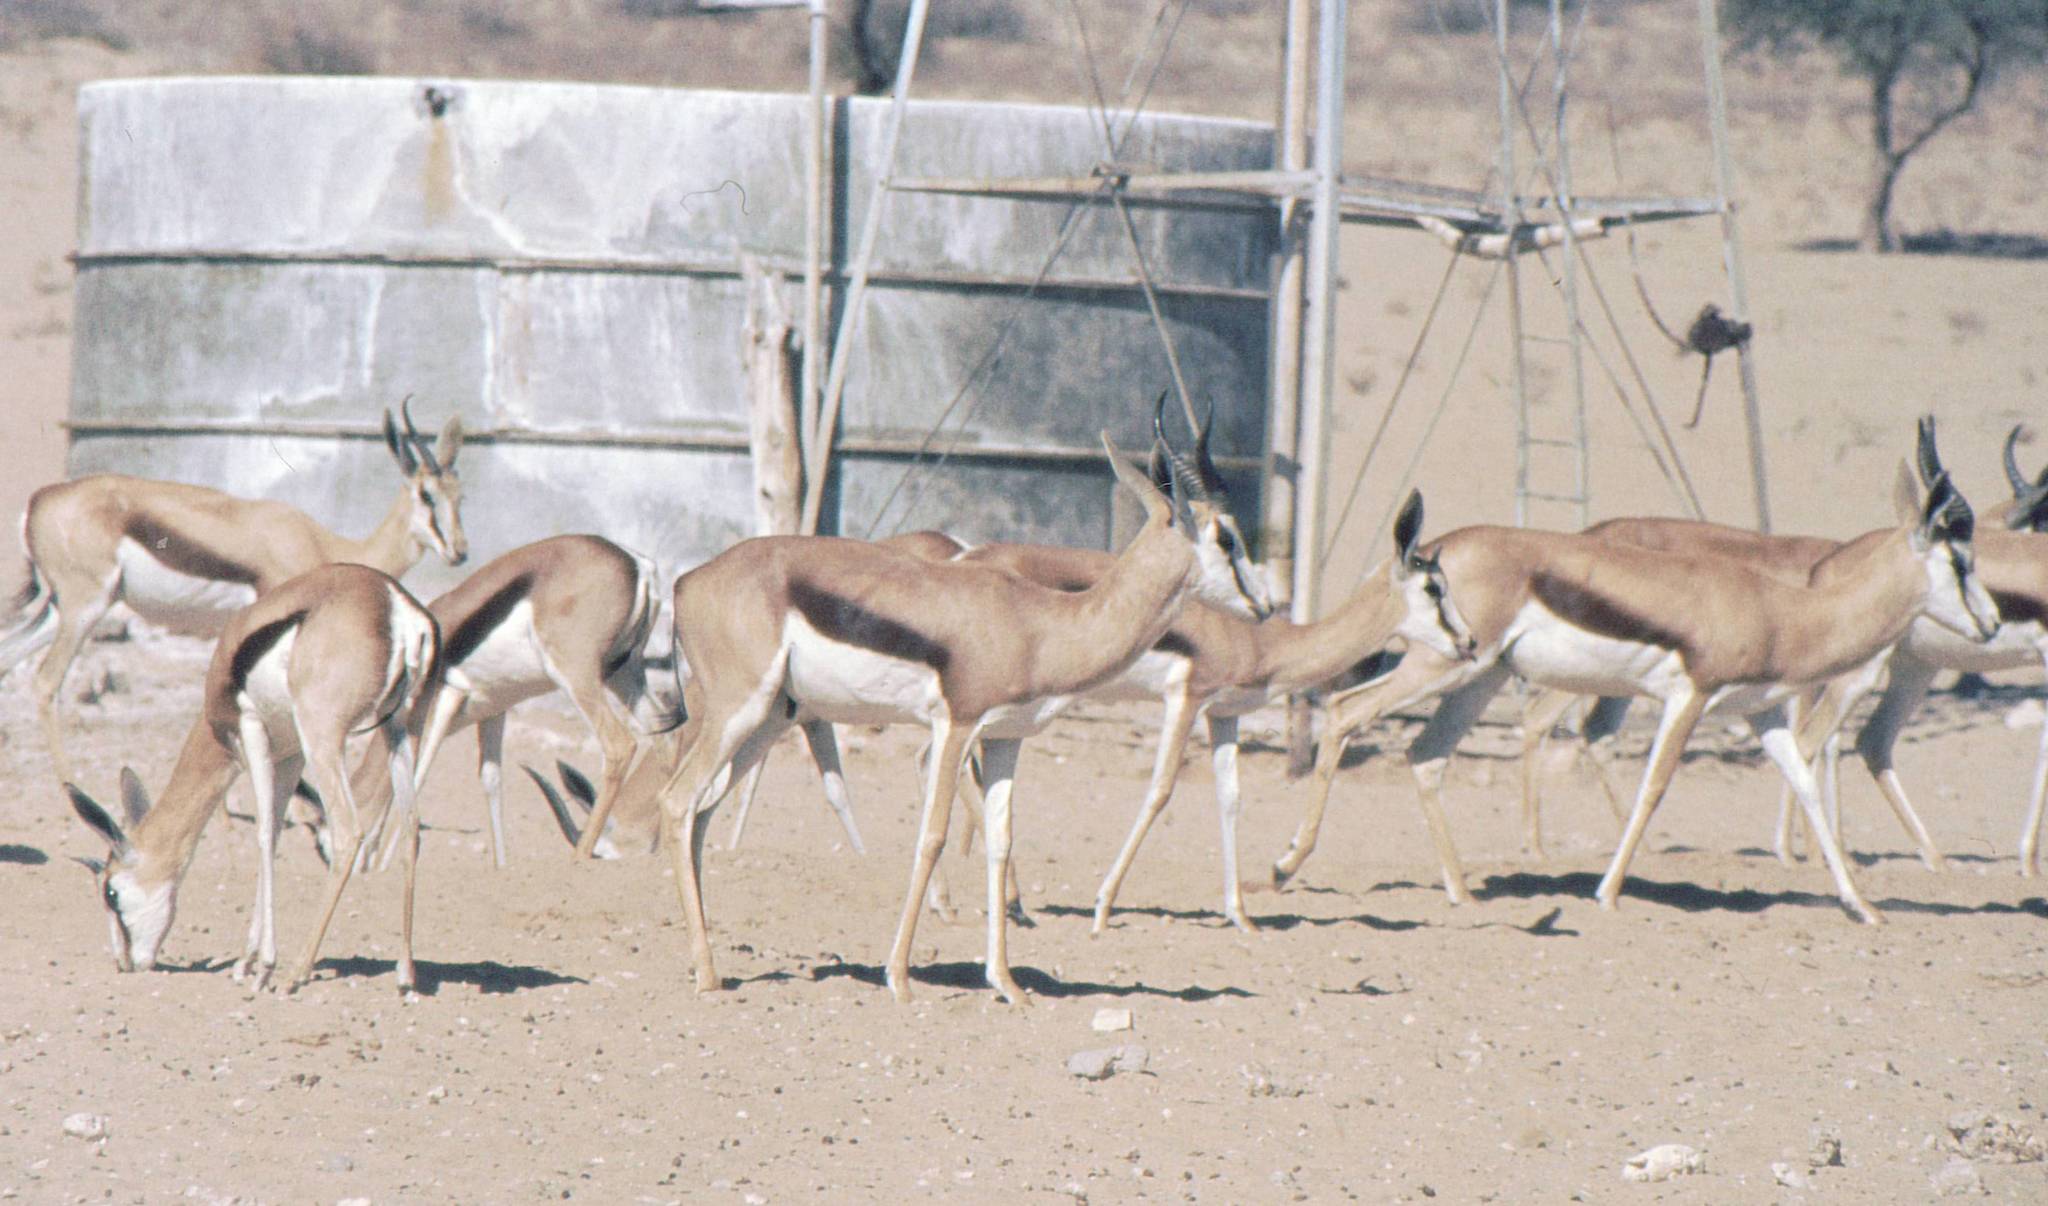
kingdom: Animalia
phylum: Chordata
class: Mammalia
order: Artiodactyla
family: Bovidae
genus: Antidorcas
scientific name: Antidorcas marsupialis
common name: Springbok
